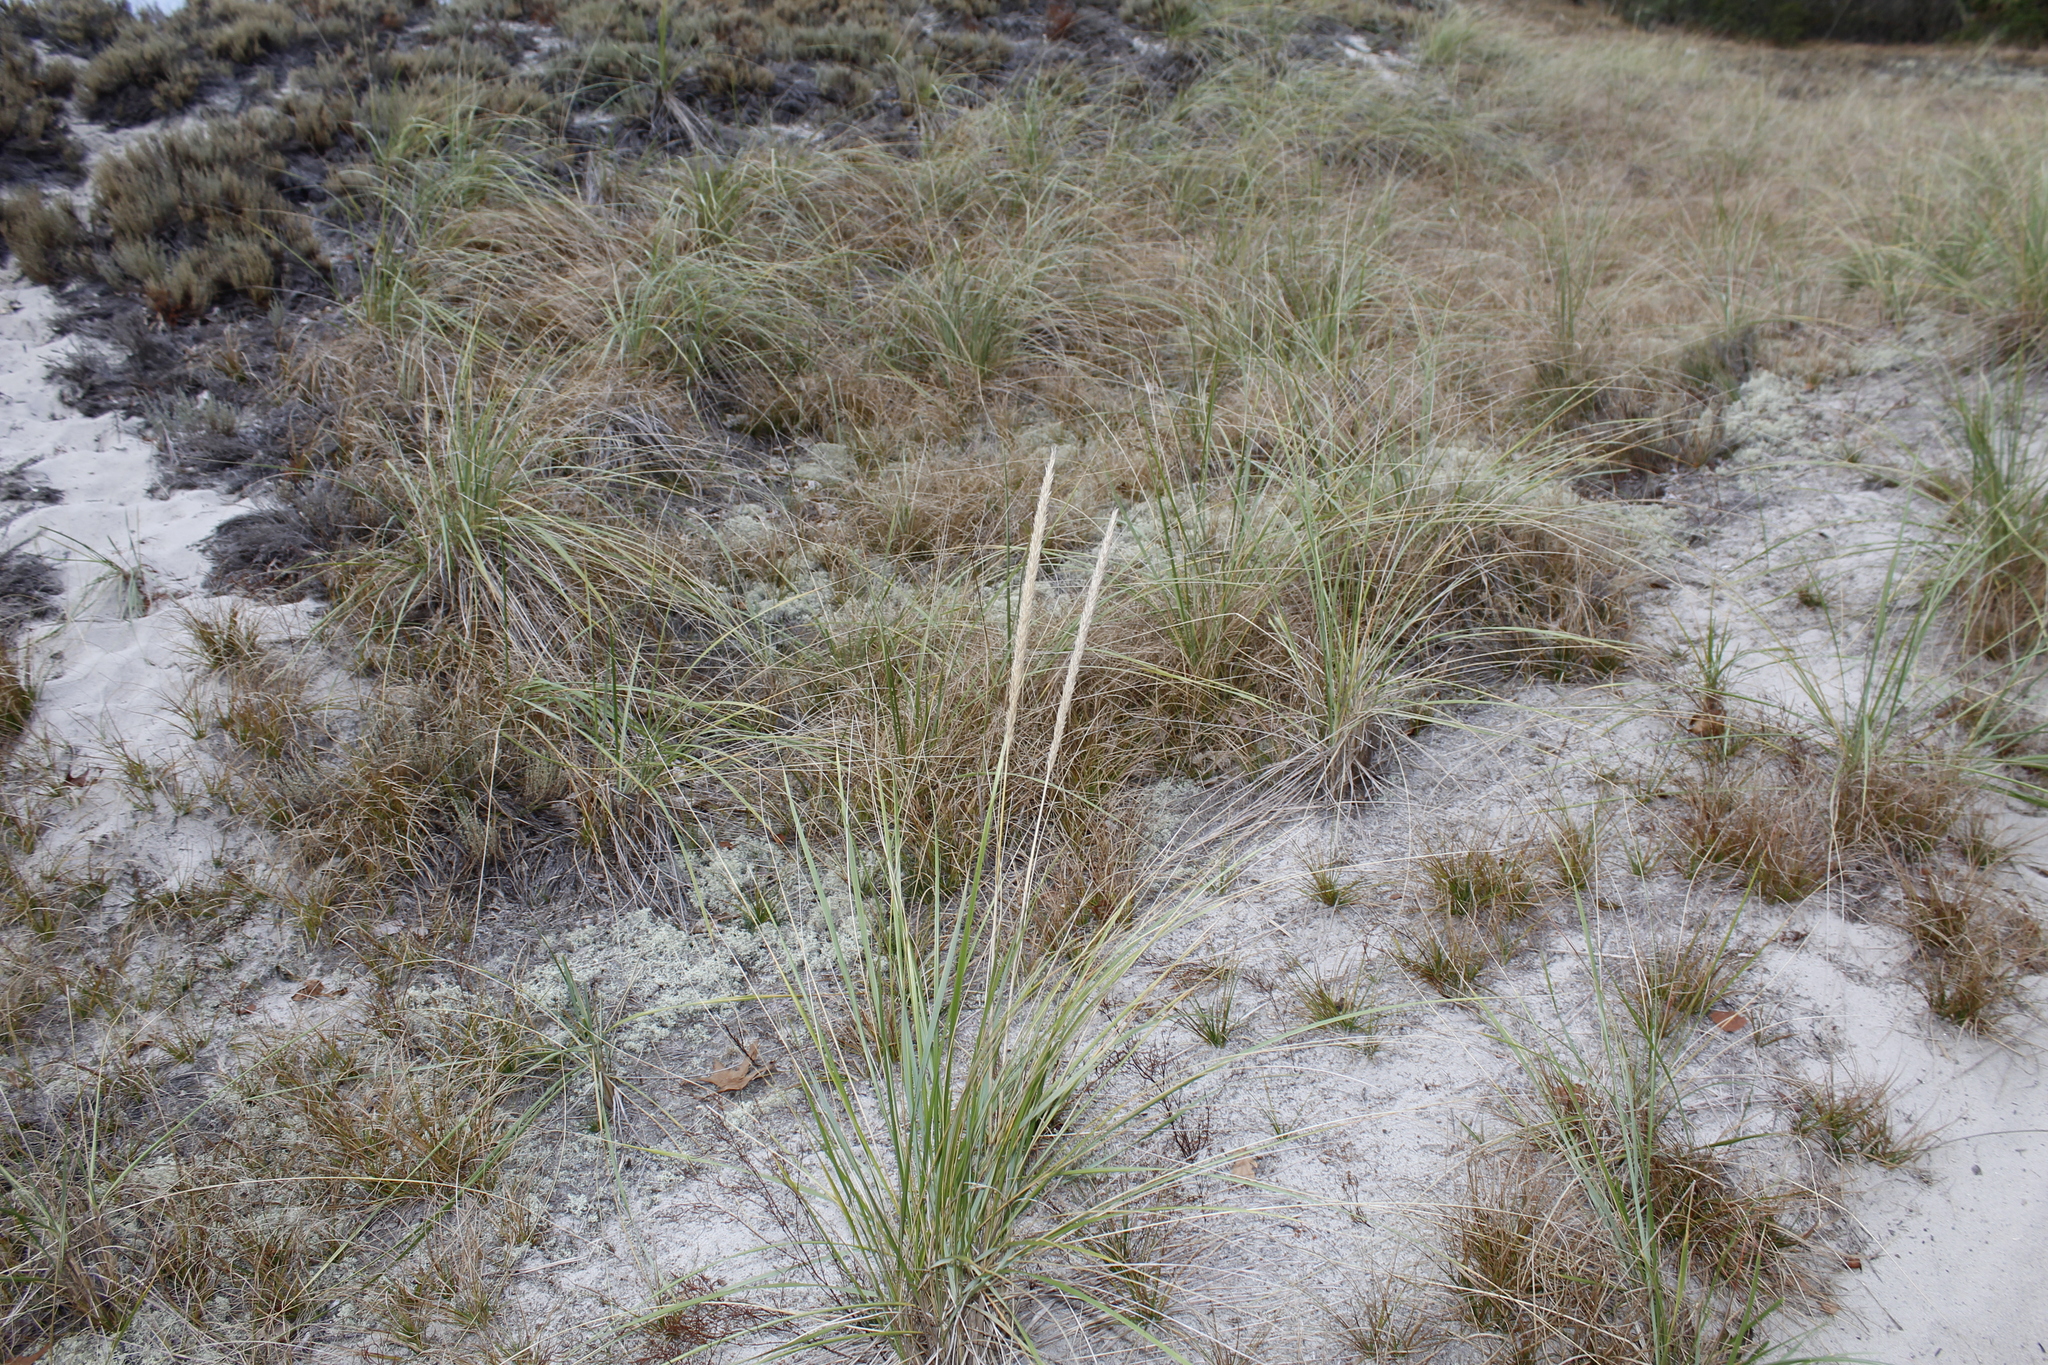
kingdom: Plantae
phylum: Tracheophyta
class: Liliopsida
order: Poales
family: Poaceae
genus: Calamagrostis
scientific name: Calamagrostis breviligulata
